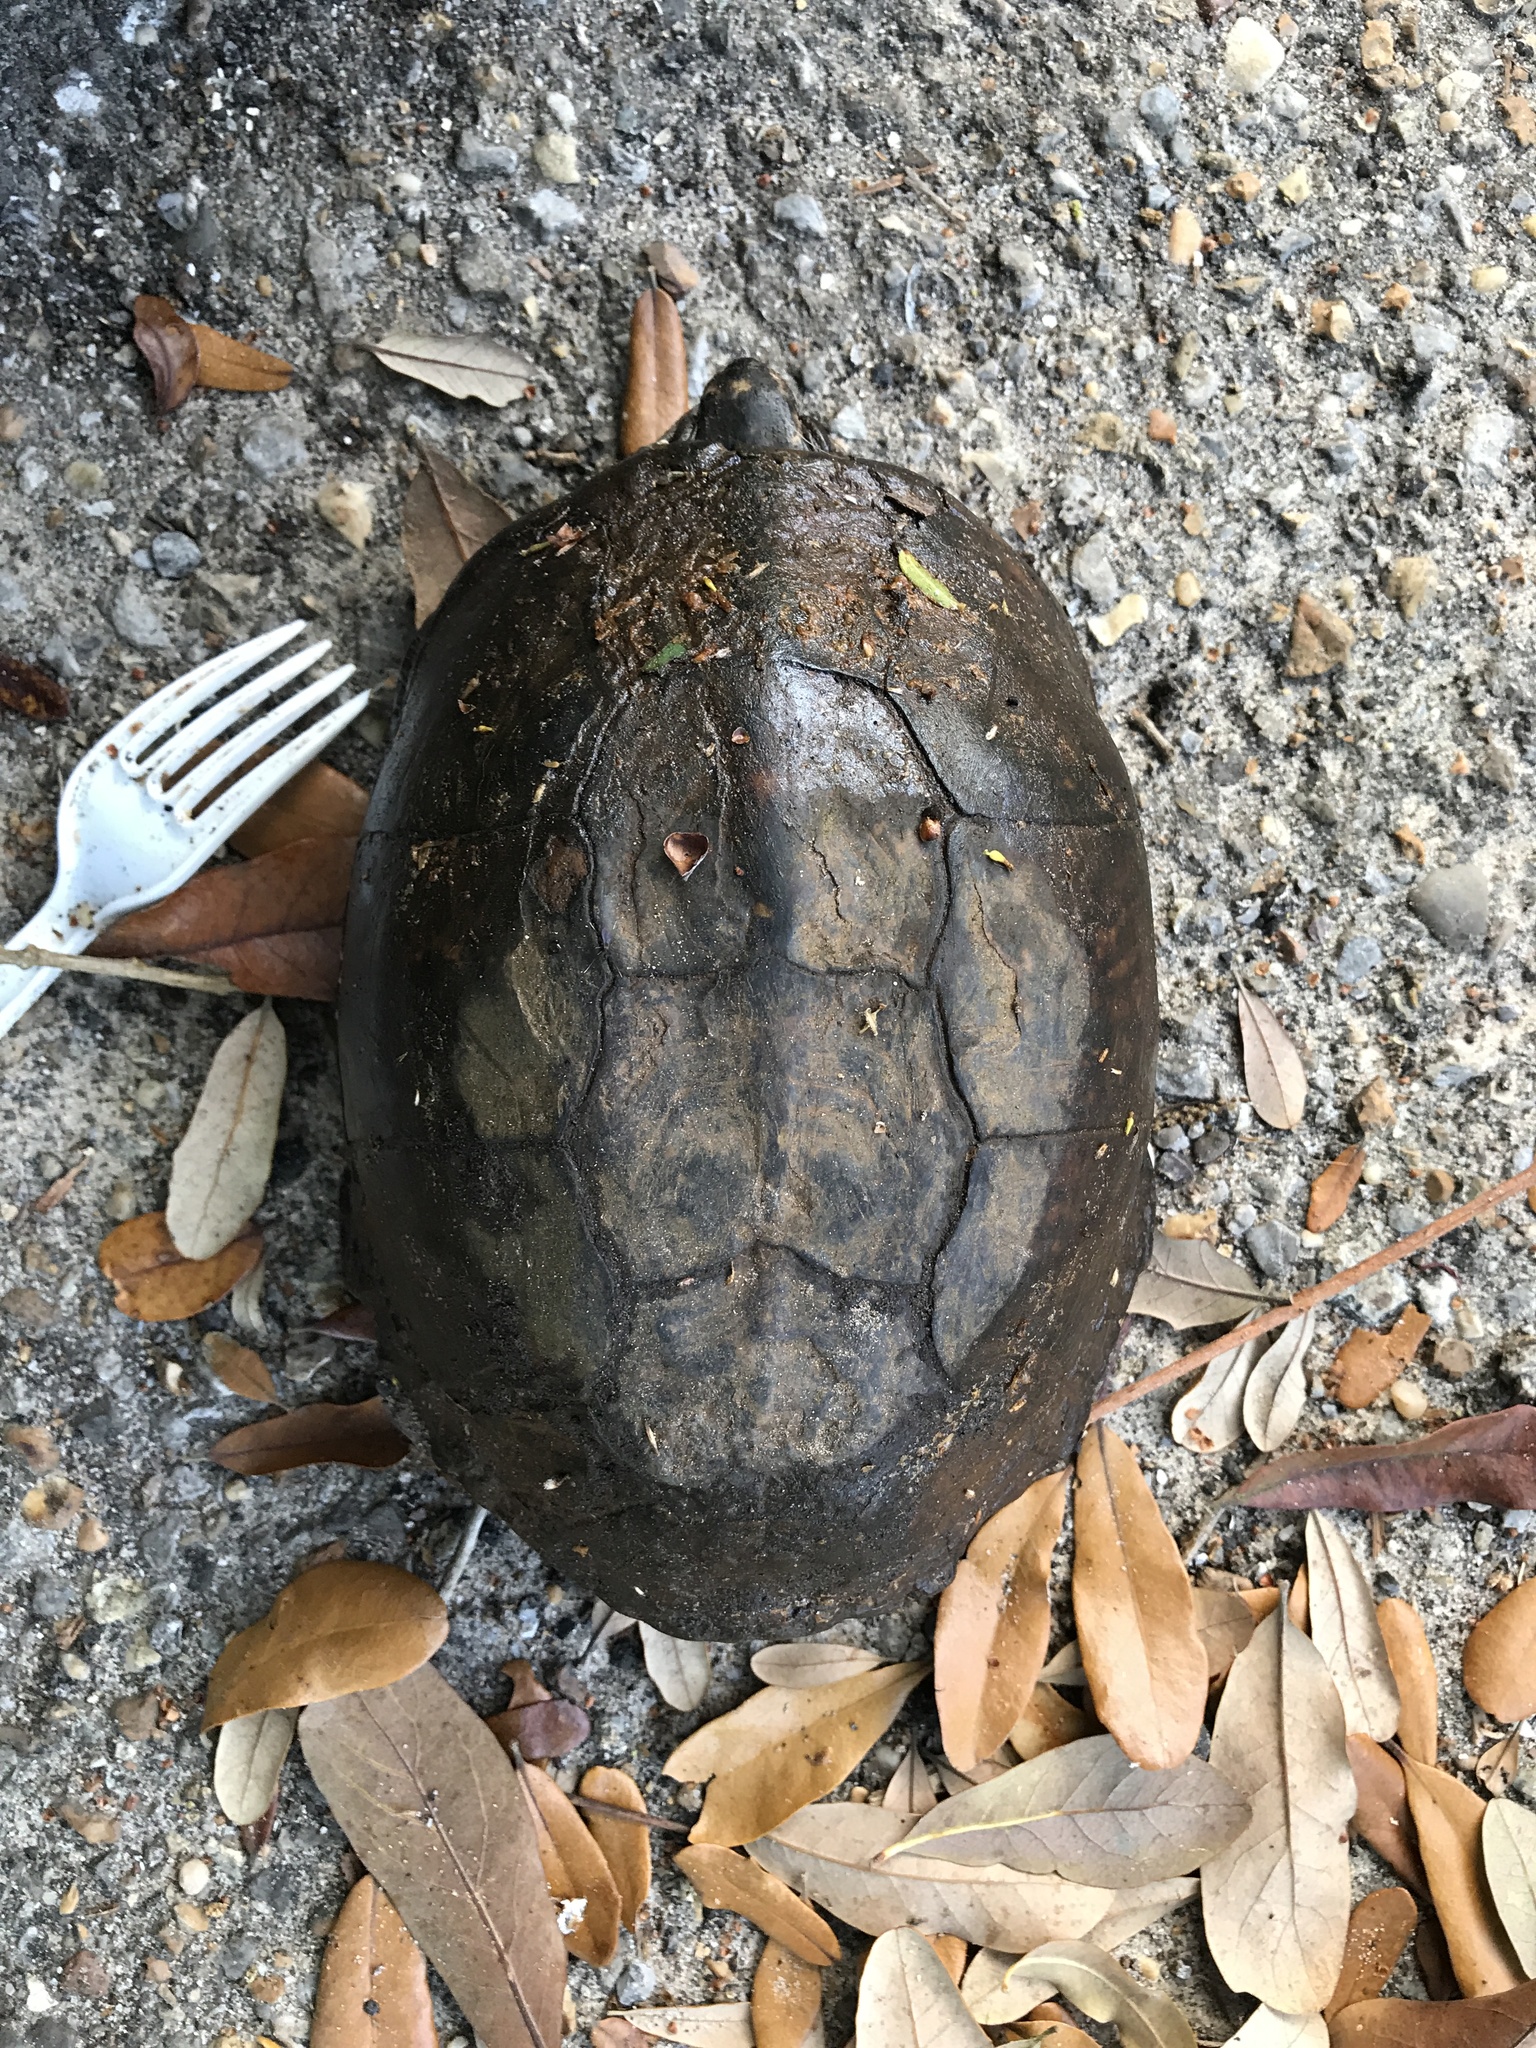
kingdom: Animalia
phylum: Chordata
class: Testudines
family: Emydidae
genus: Terrapene
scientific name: Terrapene carolina
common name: Common box turtle
